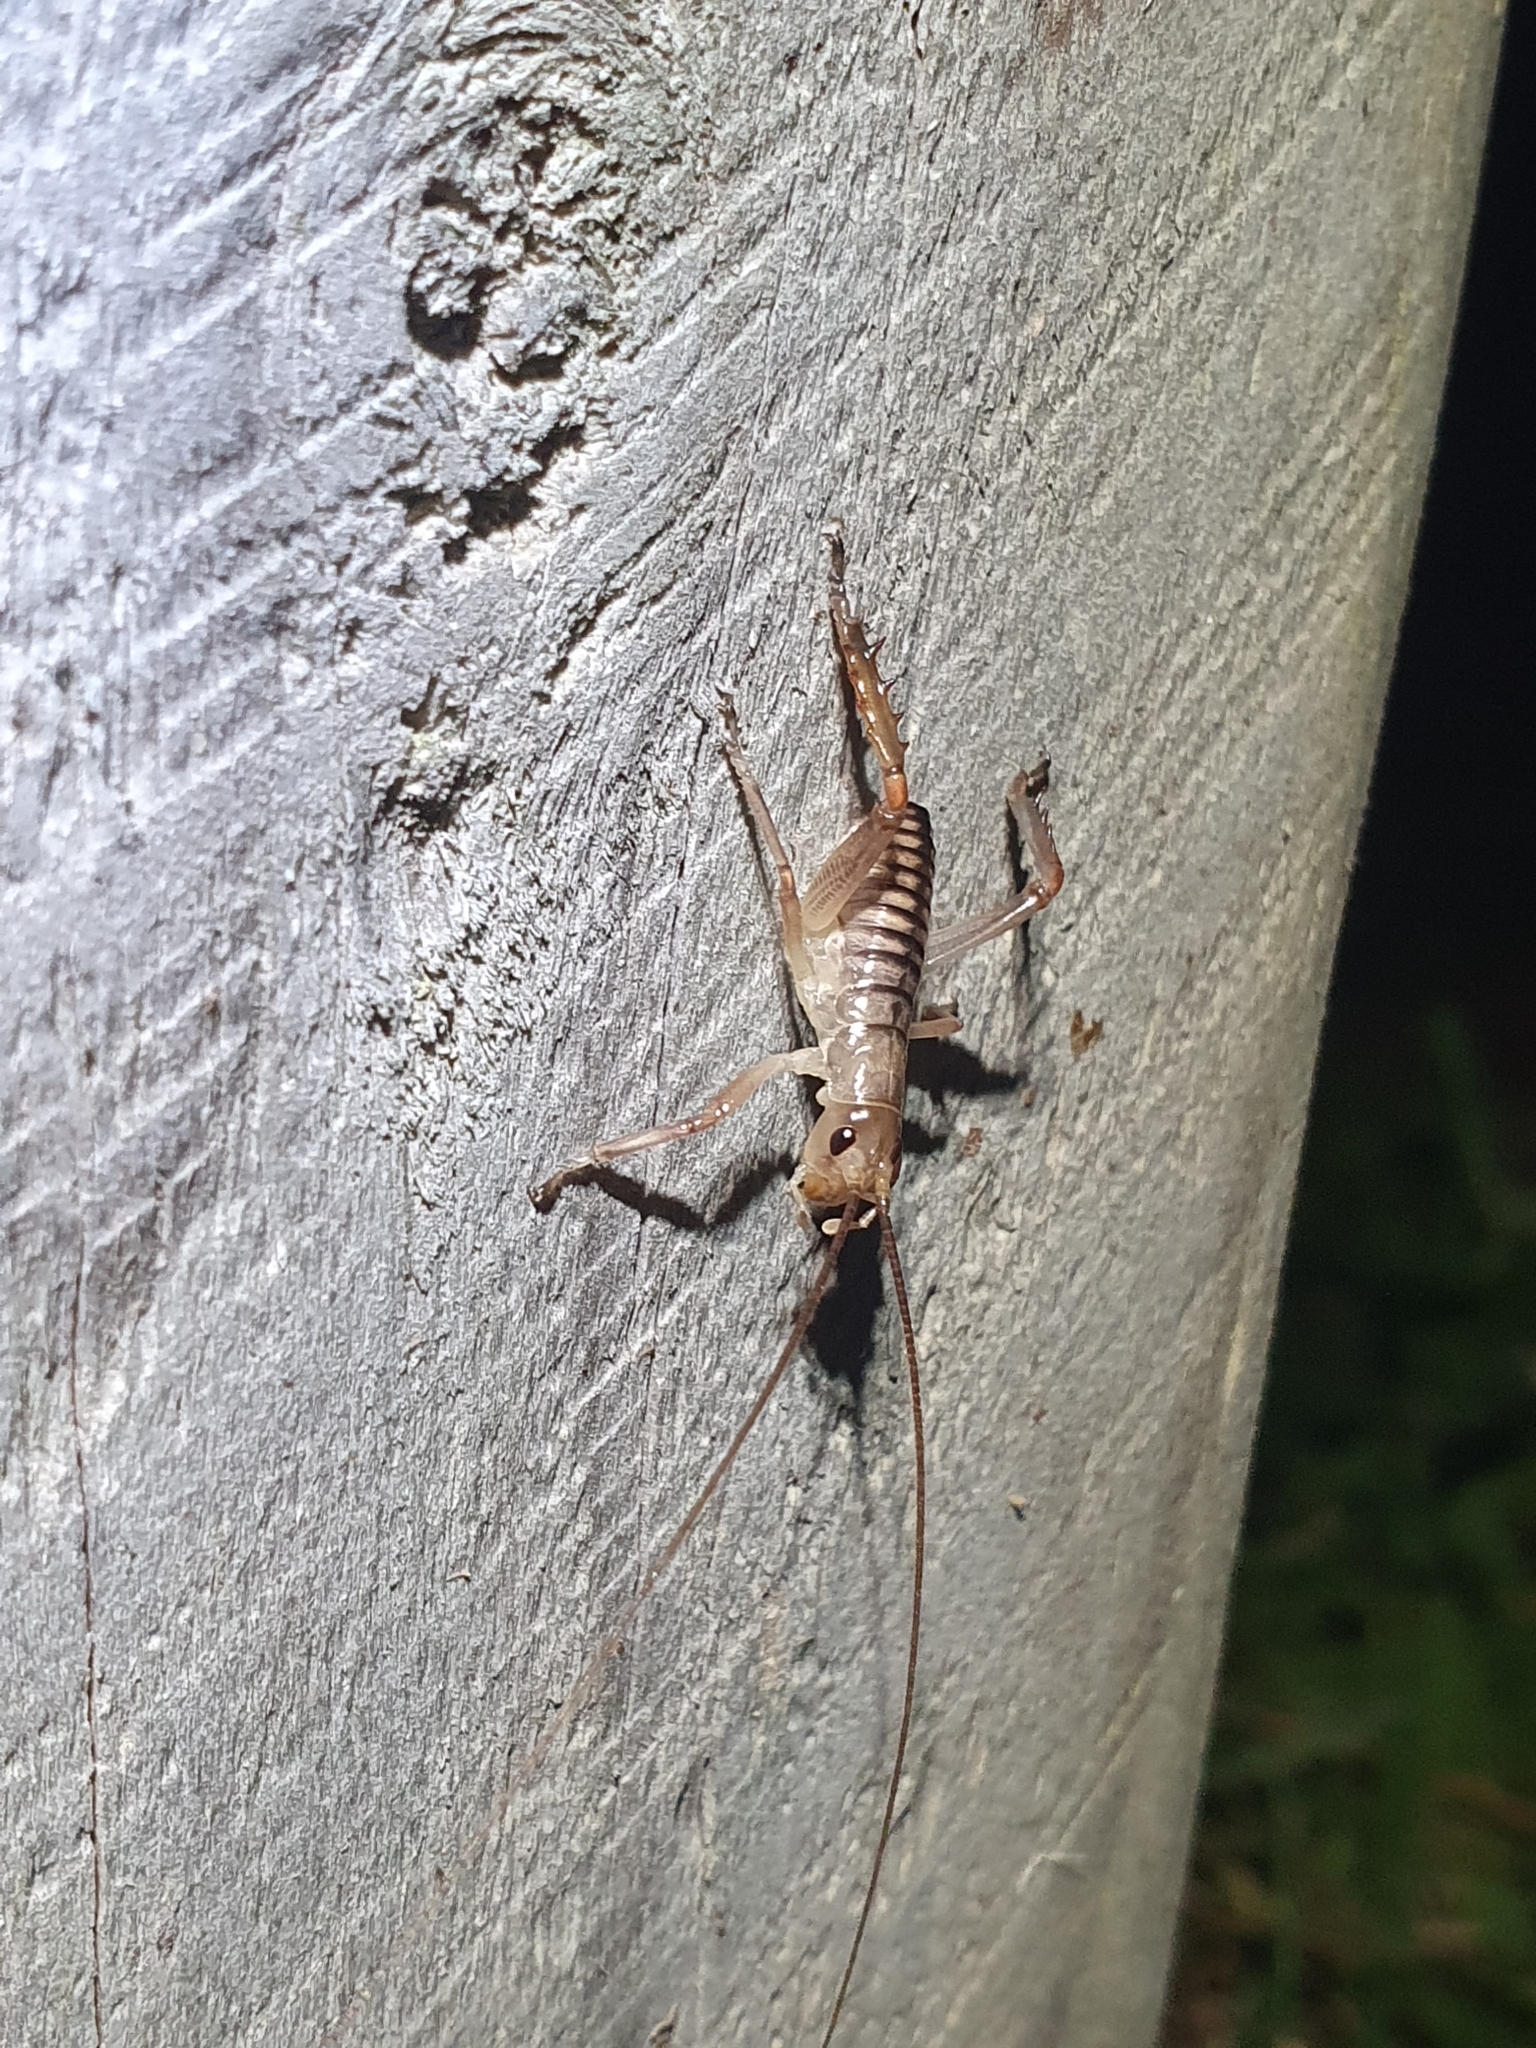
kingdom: Animalia
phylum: Arthropoda
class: Insecta
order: Orthoptera
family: Anostostomatidae
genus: Hemideina
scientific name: Hemideina crassidens
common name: Wellington tree weta
